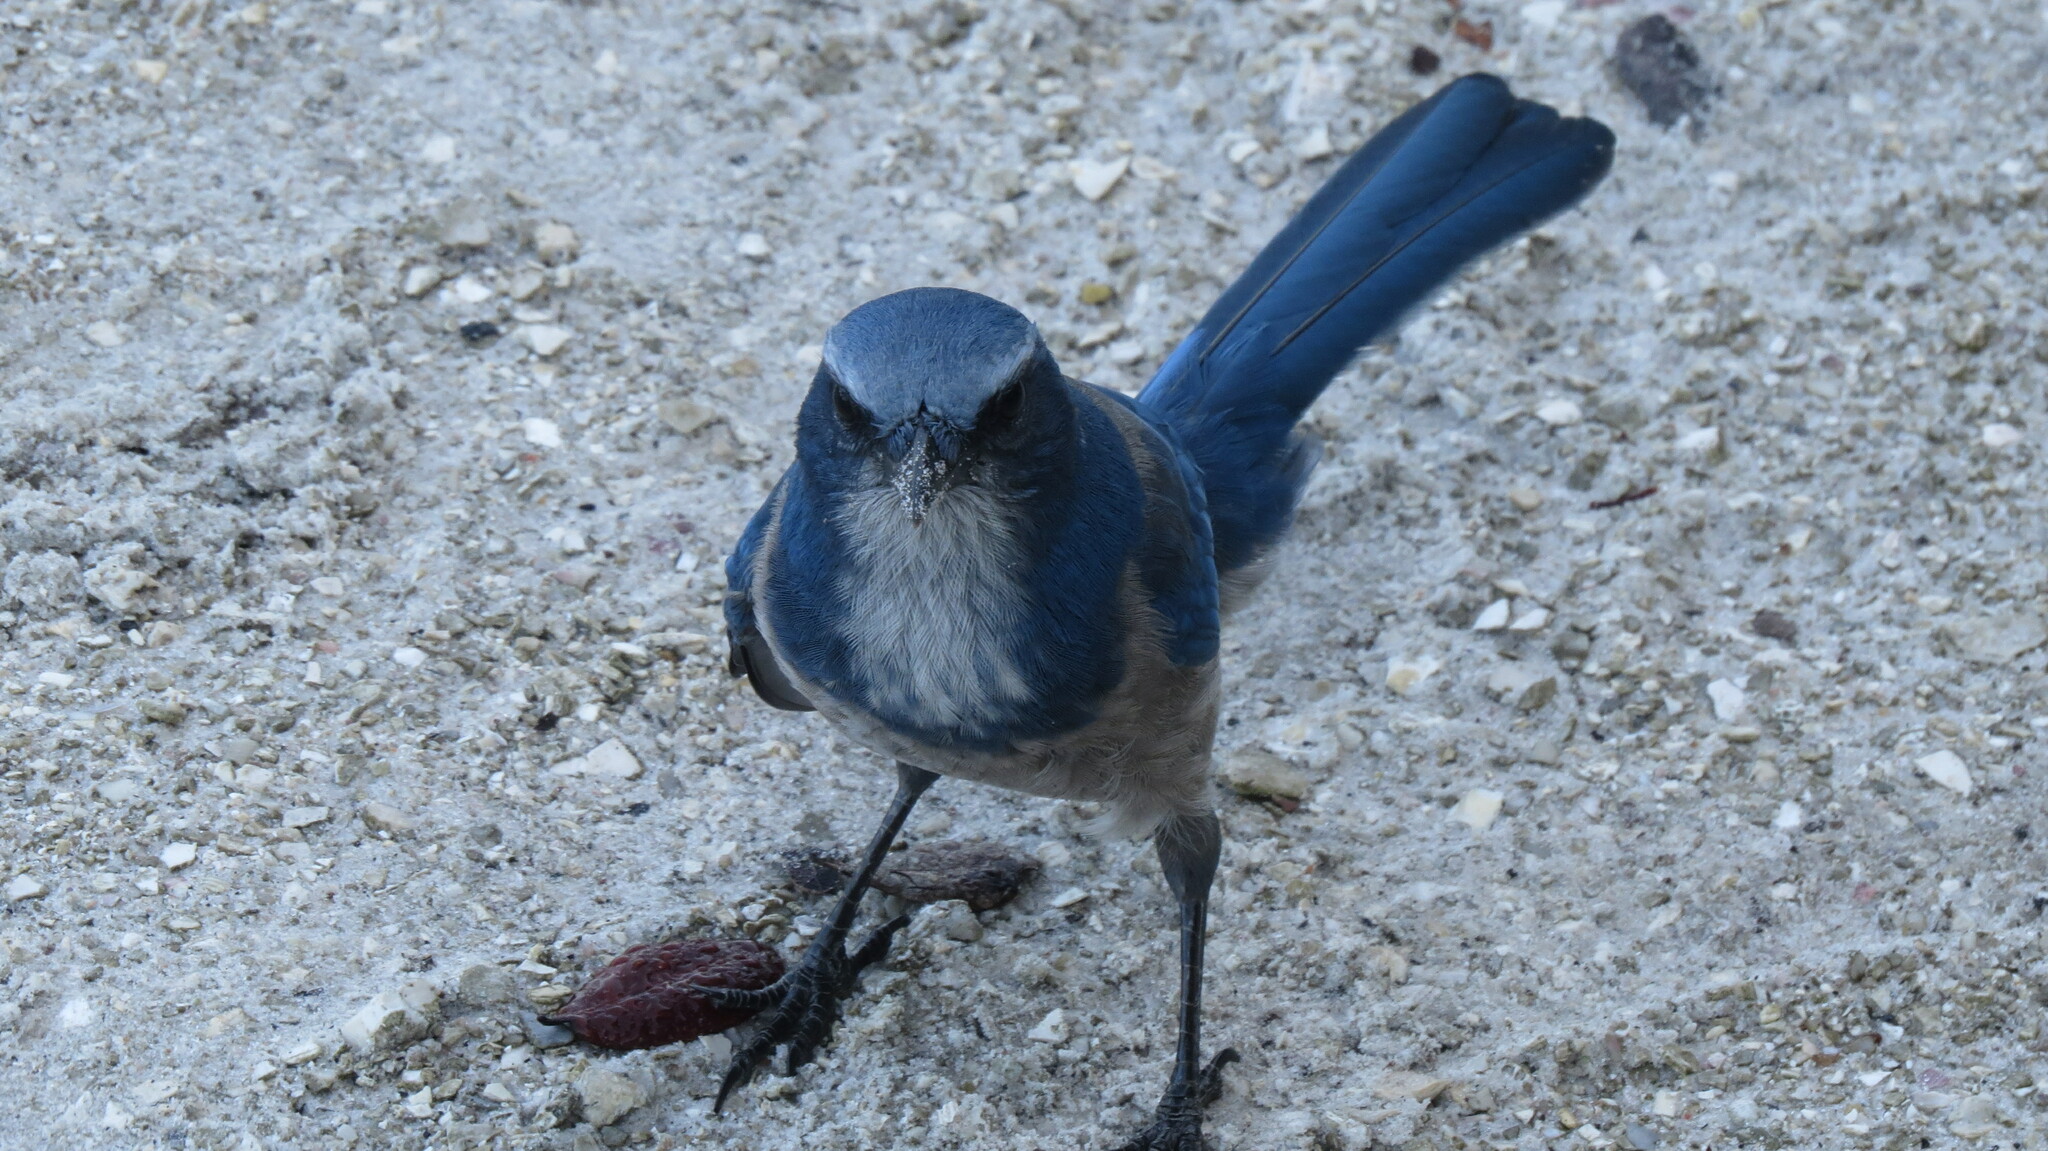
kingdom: Animalia
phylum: Chordata
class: Aves
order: Passeriformes
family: Corvidae
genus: Aphelocoma
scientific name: Aphelocoma coerulescens
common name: Florida scrub jay
